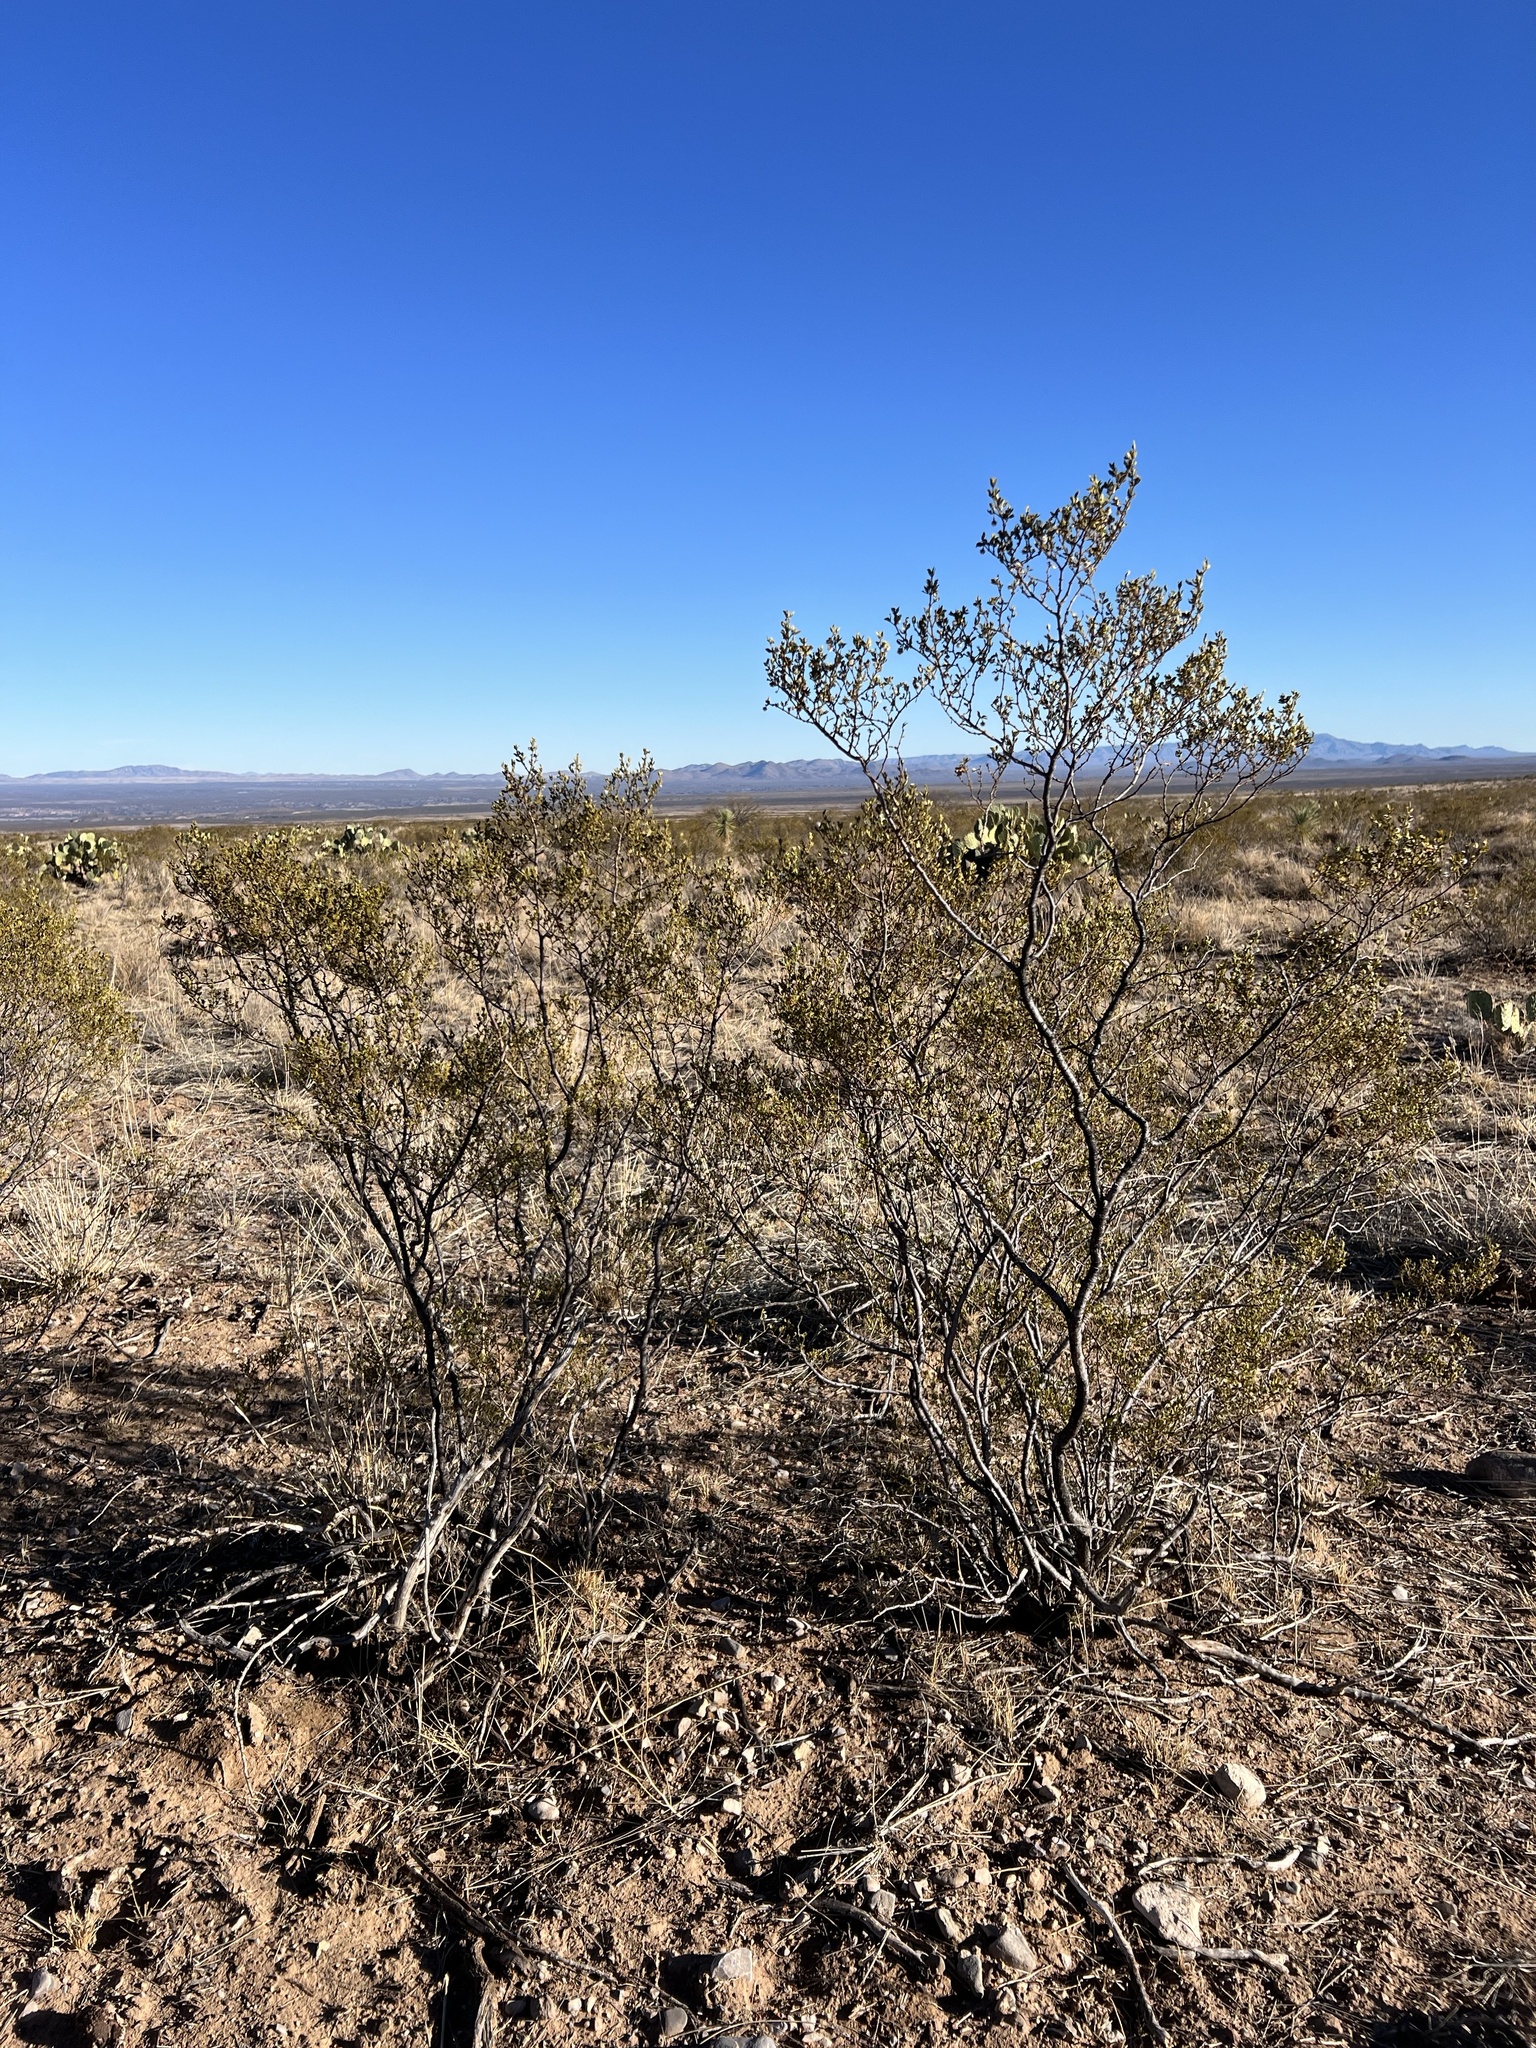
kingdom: Plantae
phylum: Tracheophyta
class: Magnoliopsida
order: Zygophyllales
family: Zygophyllaceae
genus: Larrea
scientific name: Larrea tridentata
